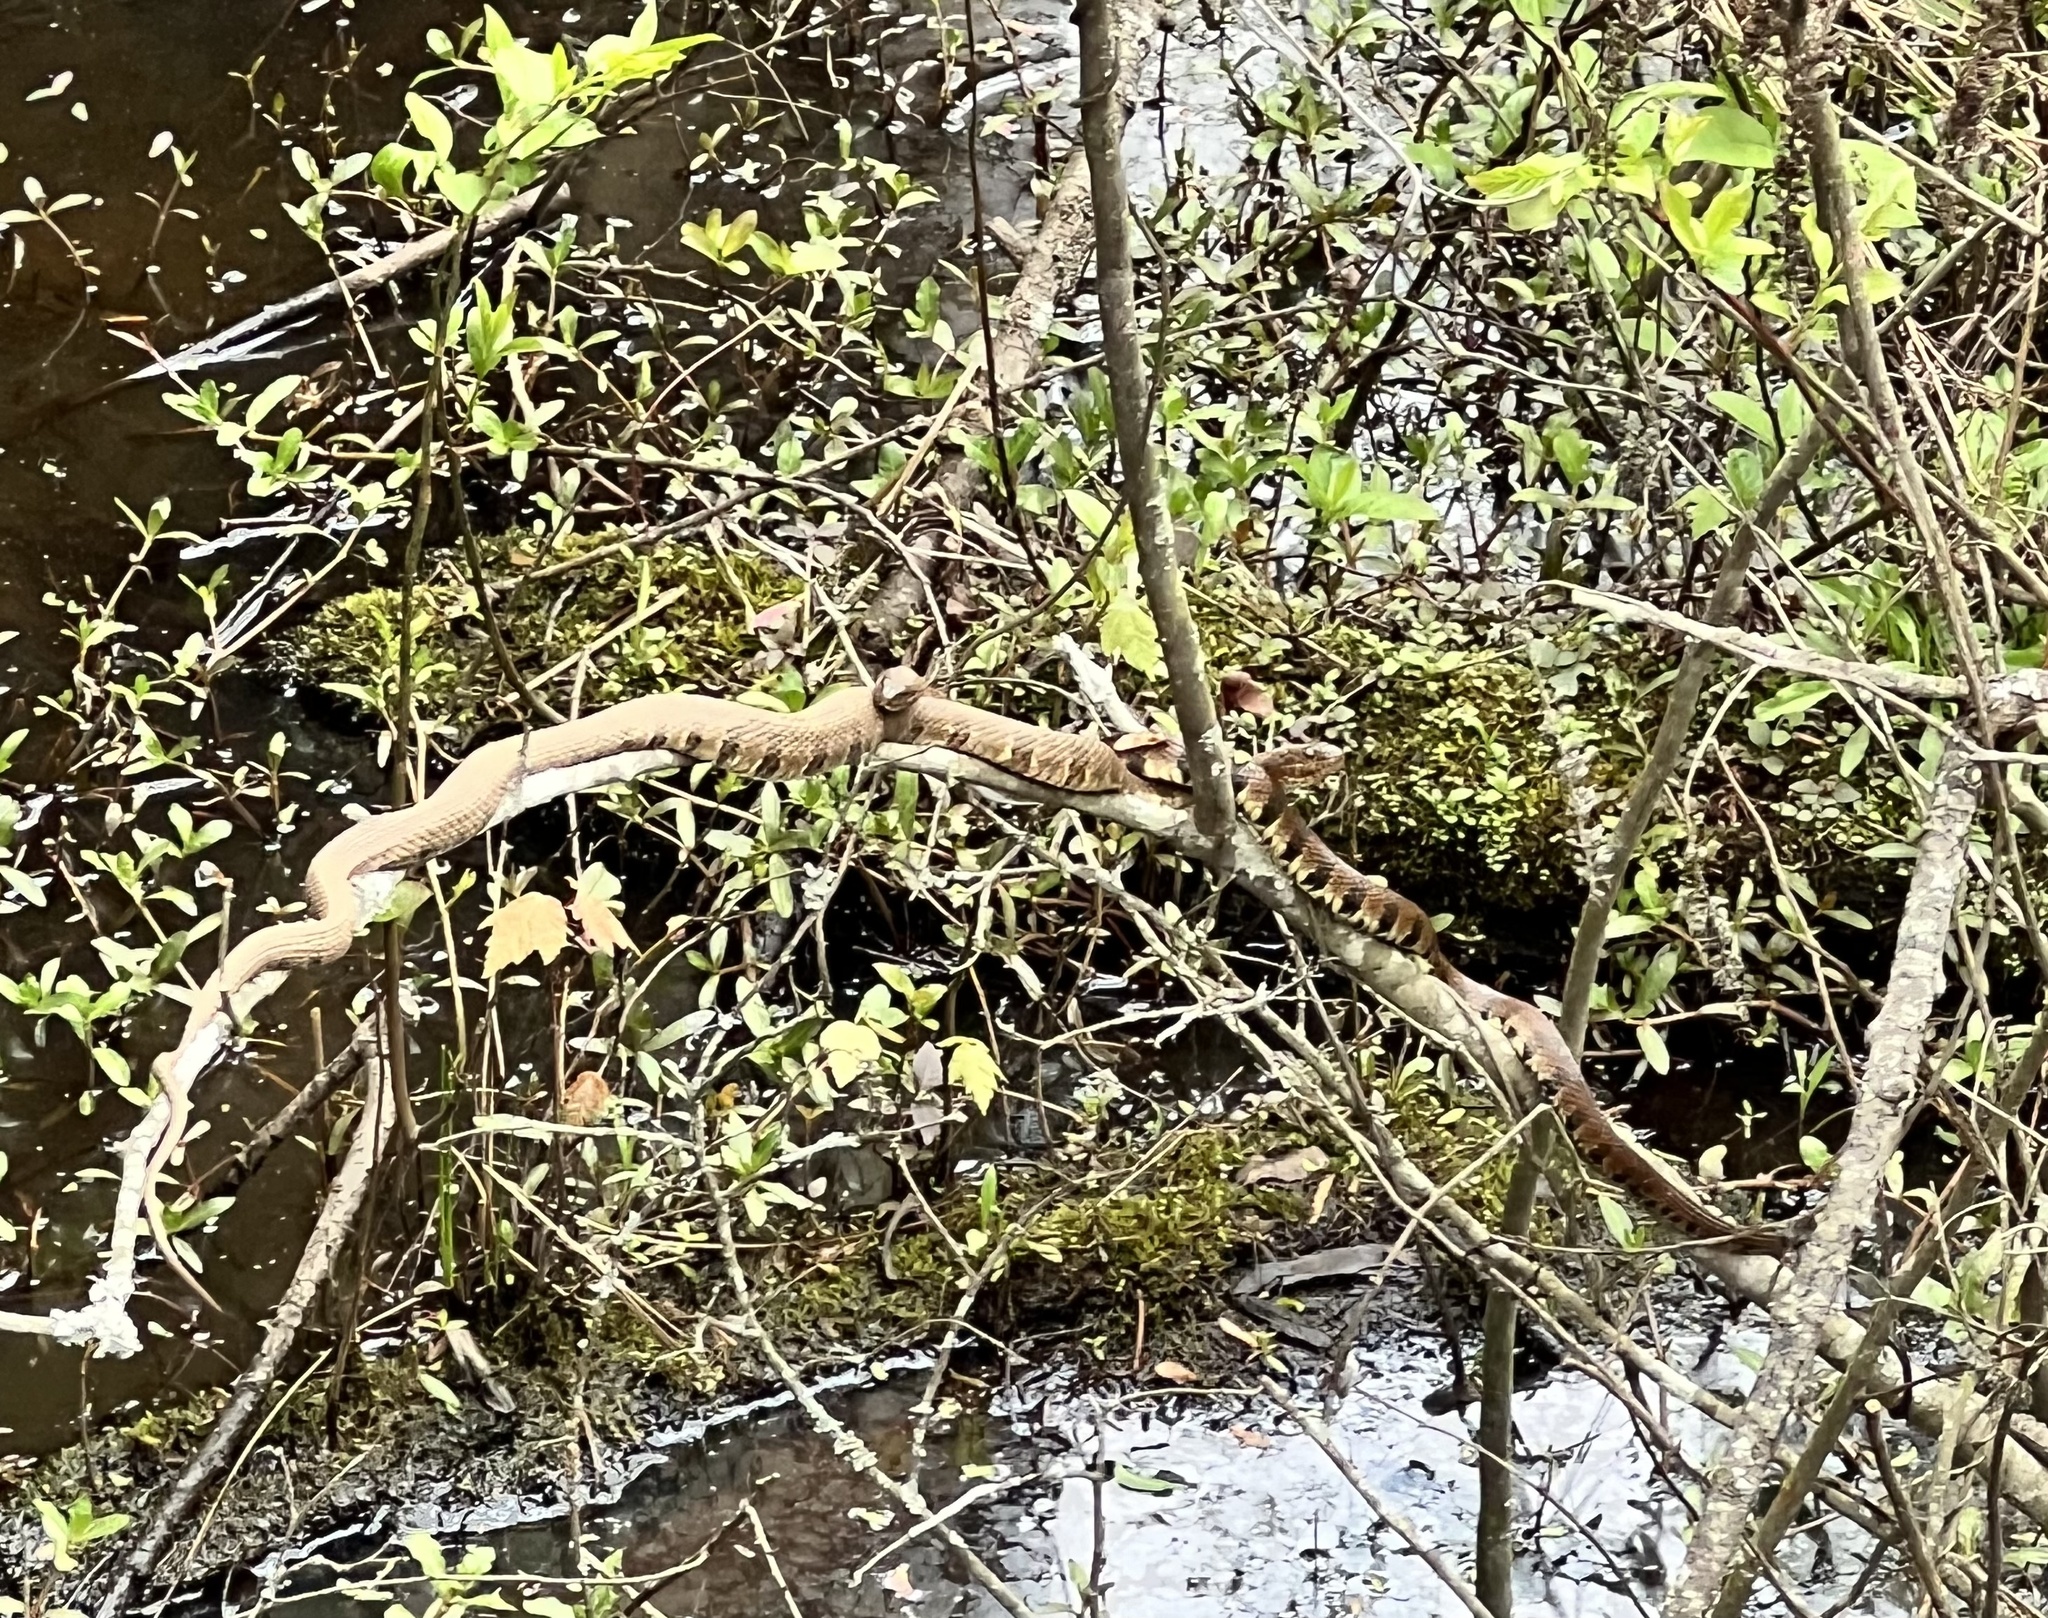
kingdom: Animalia
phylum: Chordata
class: Squamata
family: Colubridae
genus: Nerodia
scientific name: Nerodia sipedon
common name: Northern water snake
